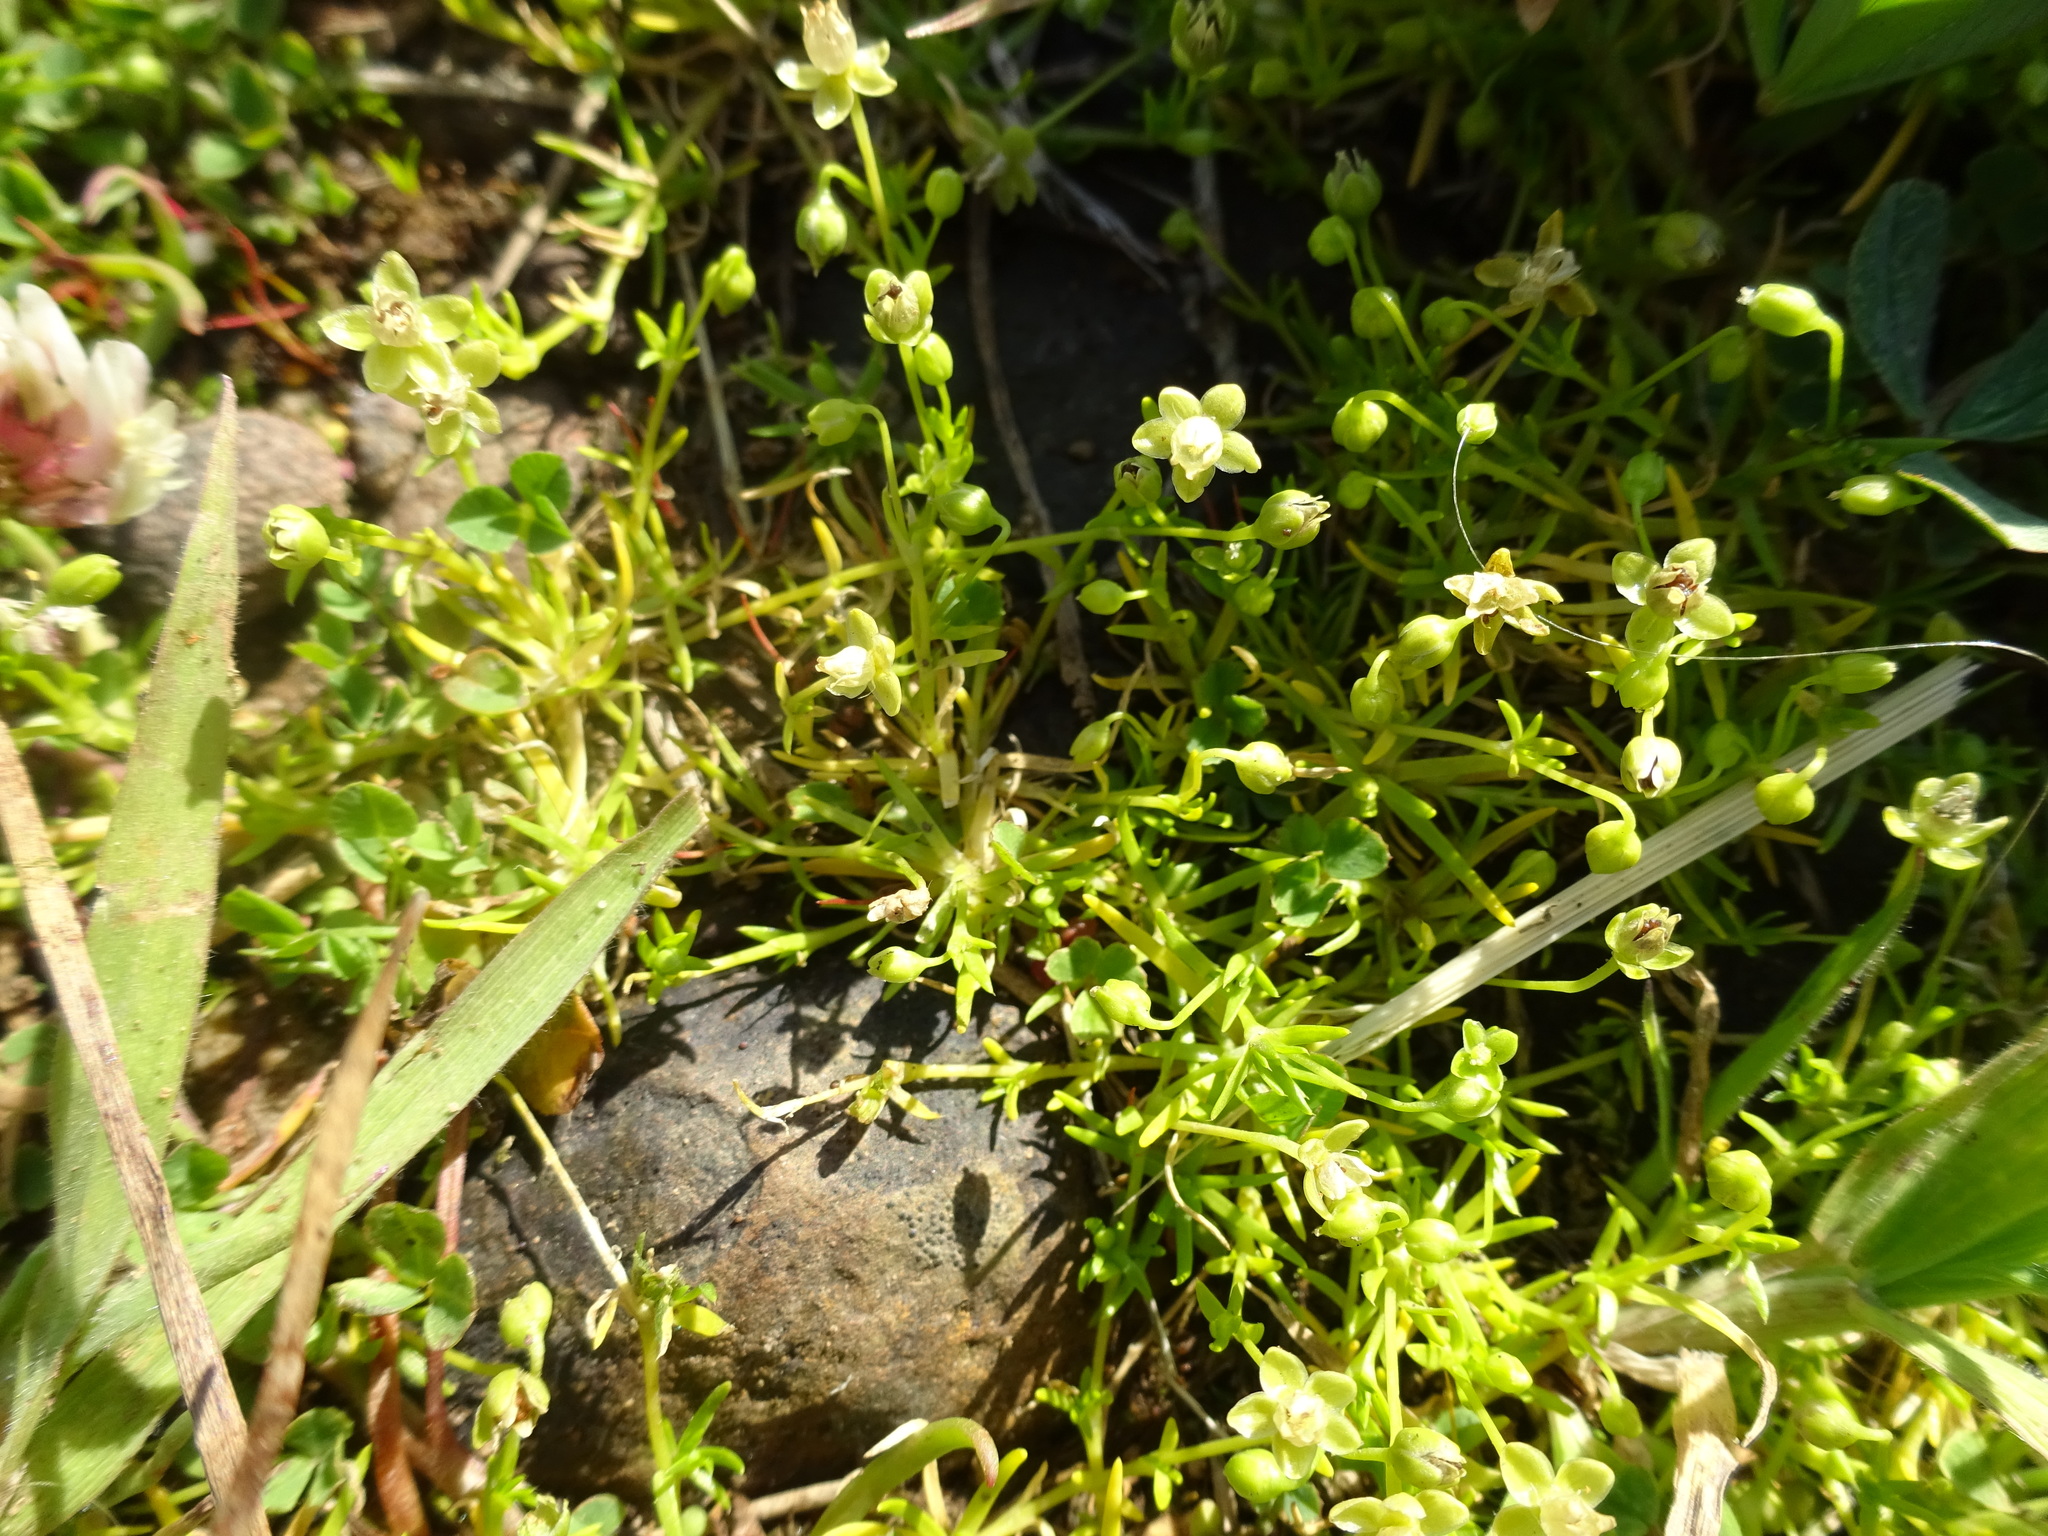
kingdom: Plantae
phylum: Tracheophyta
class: Magnoliopsida
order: Caryophyllales
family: Caryophyllaceae
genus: Sagina
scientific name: Sagina procumbens
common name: Procumbent pearlwort
